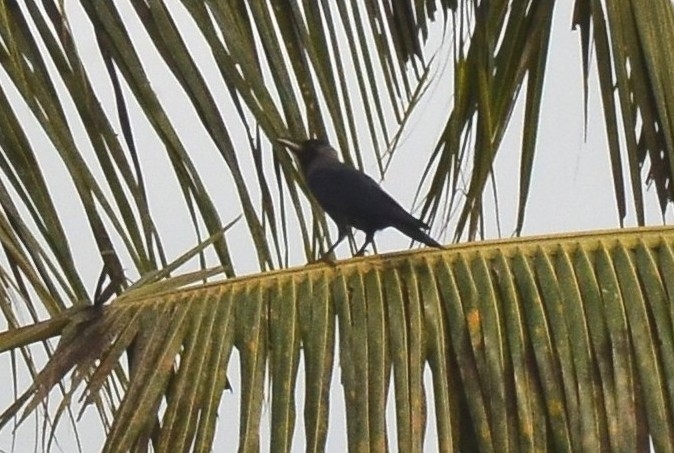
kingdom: Animalia
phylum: Chordata
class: Aves
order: Passeriformes
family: Corvidae
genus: Corvus
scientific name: Corvus splendens
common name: House crow
